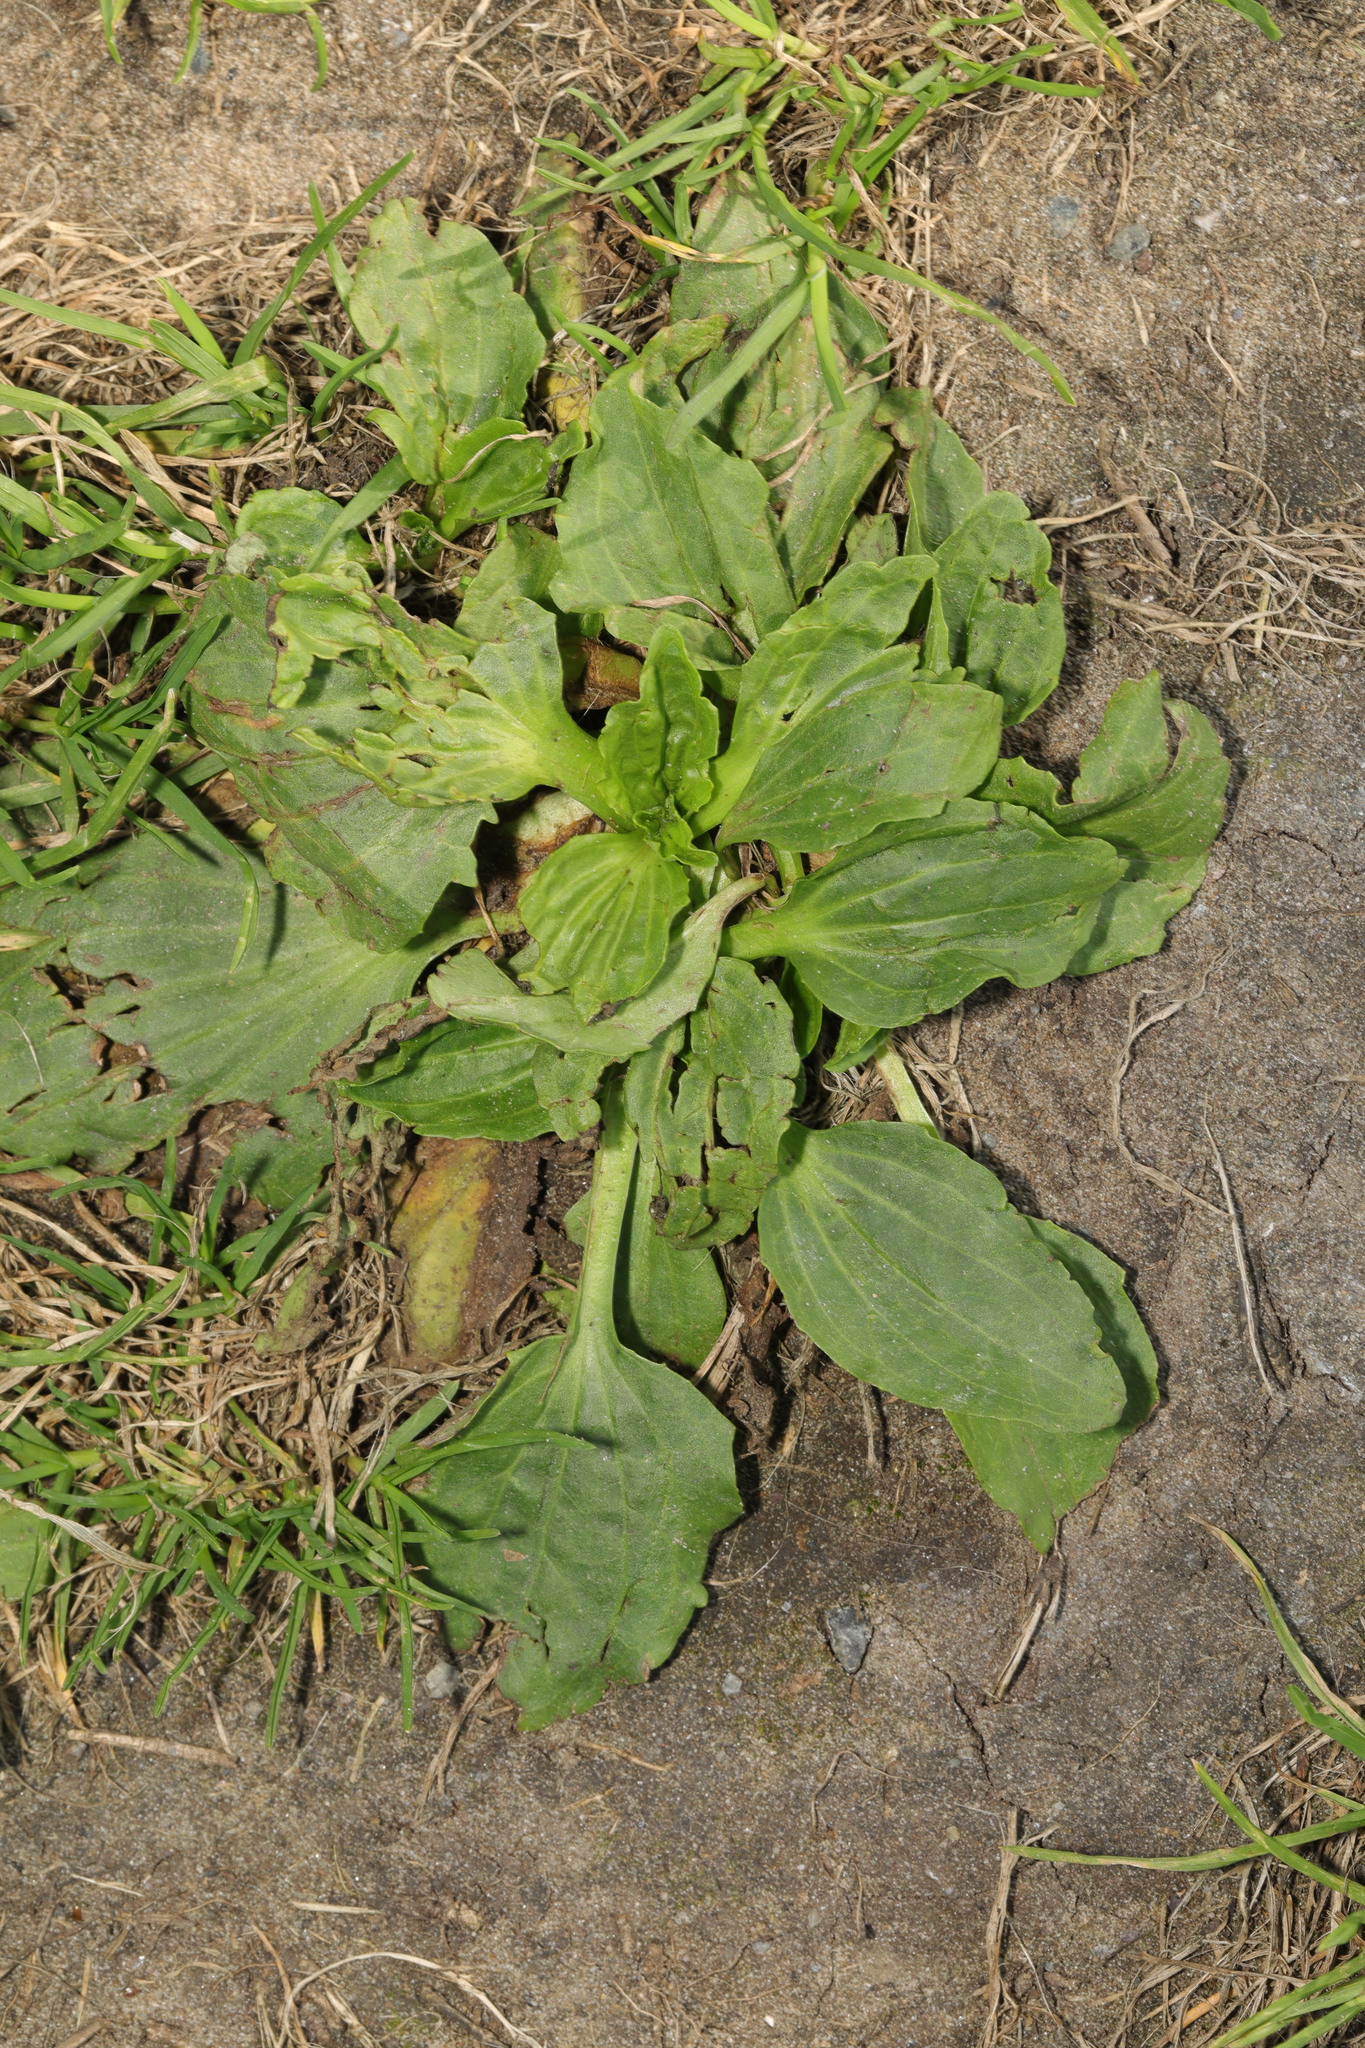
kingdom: Plantae
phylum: Tracheophyta
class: Magnoliopsida
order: Lamiales
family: Plantaginaceae
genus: Plantago
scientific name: Plantago major
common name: Common plantain
